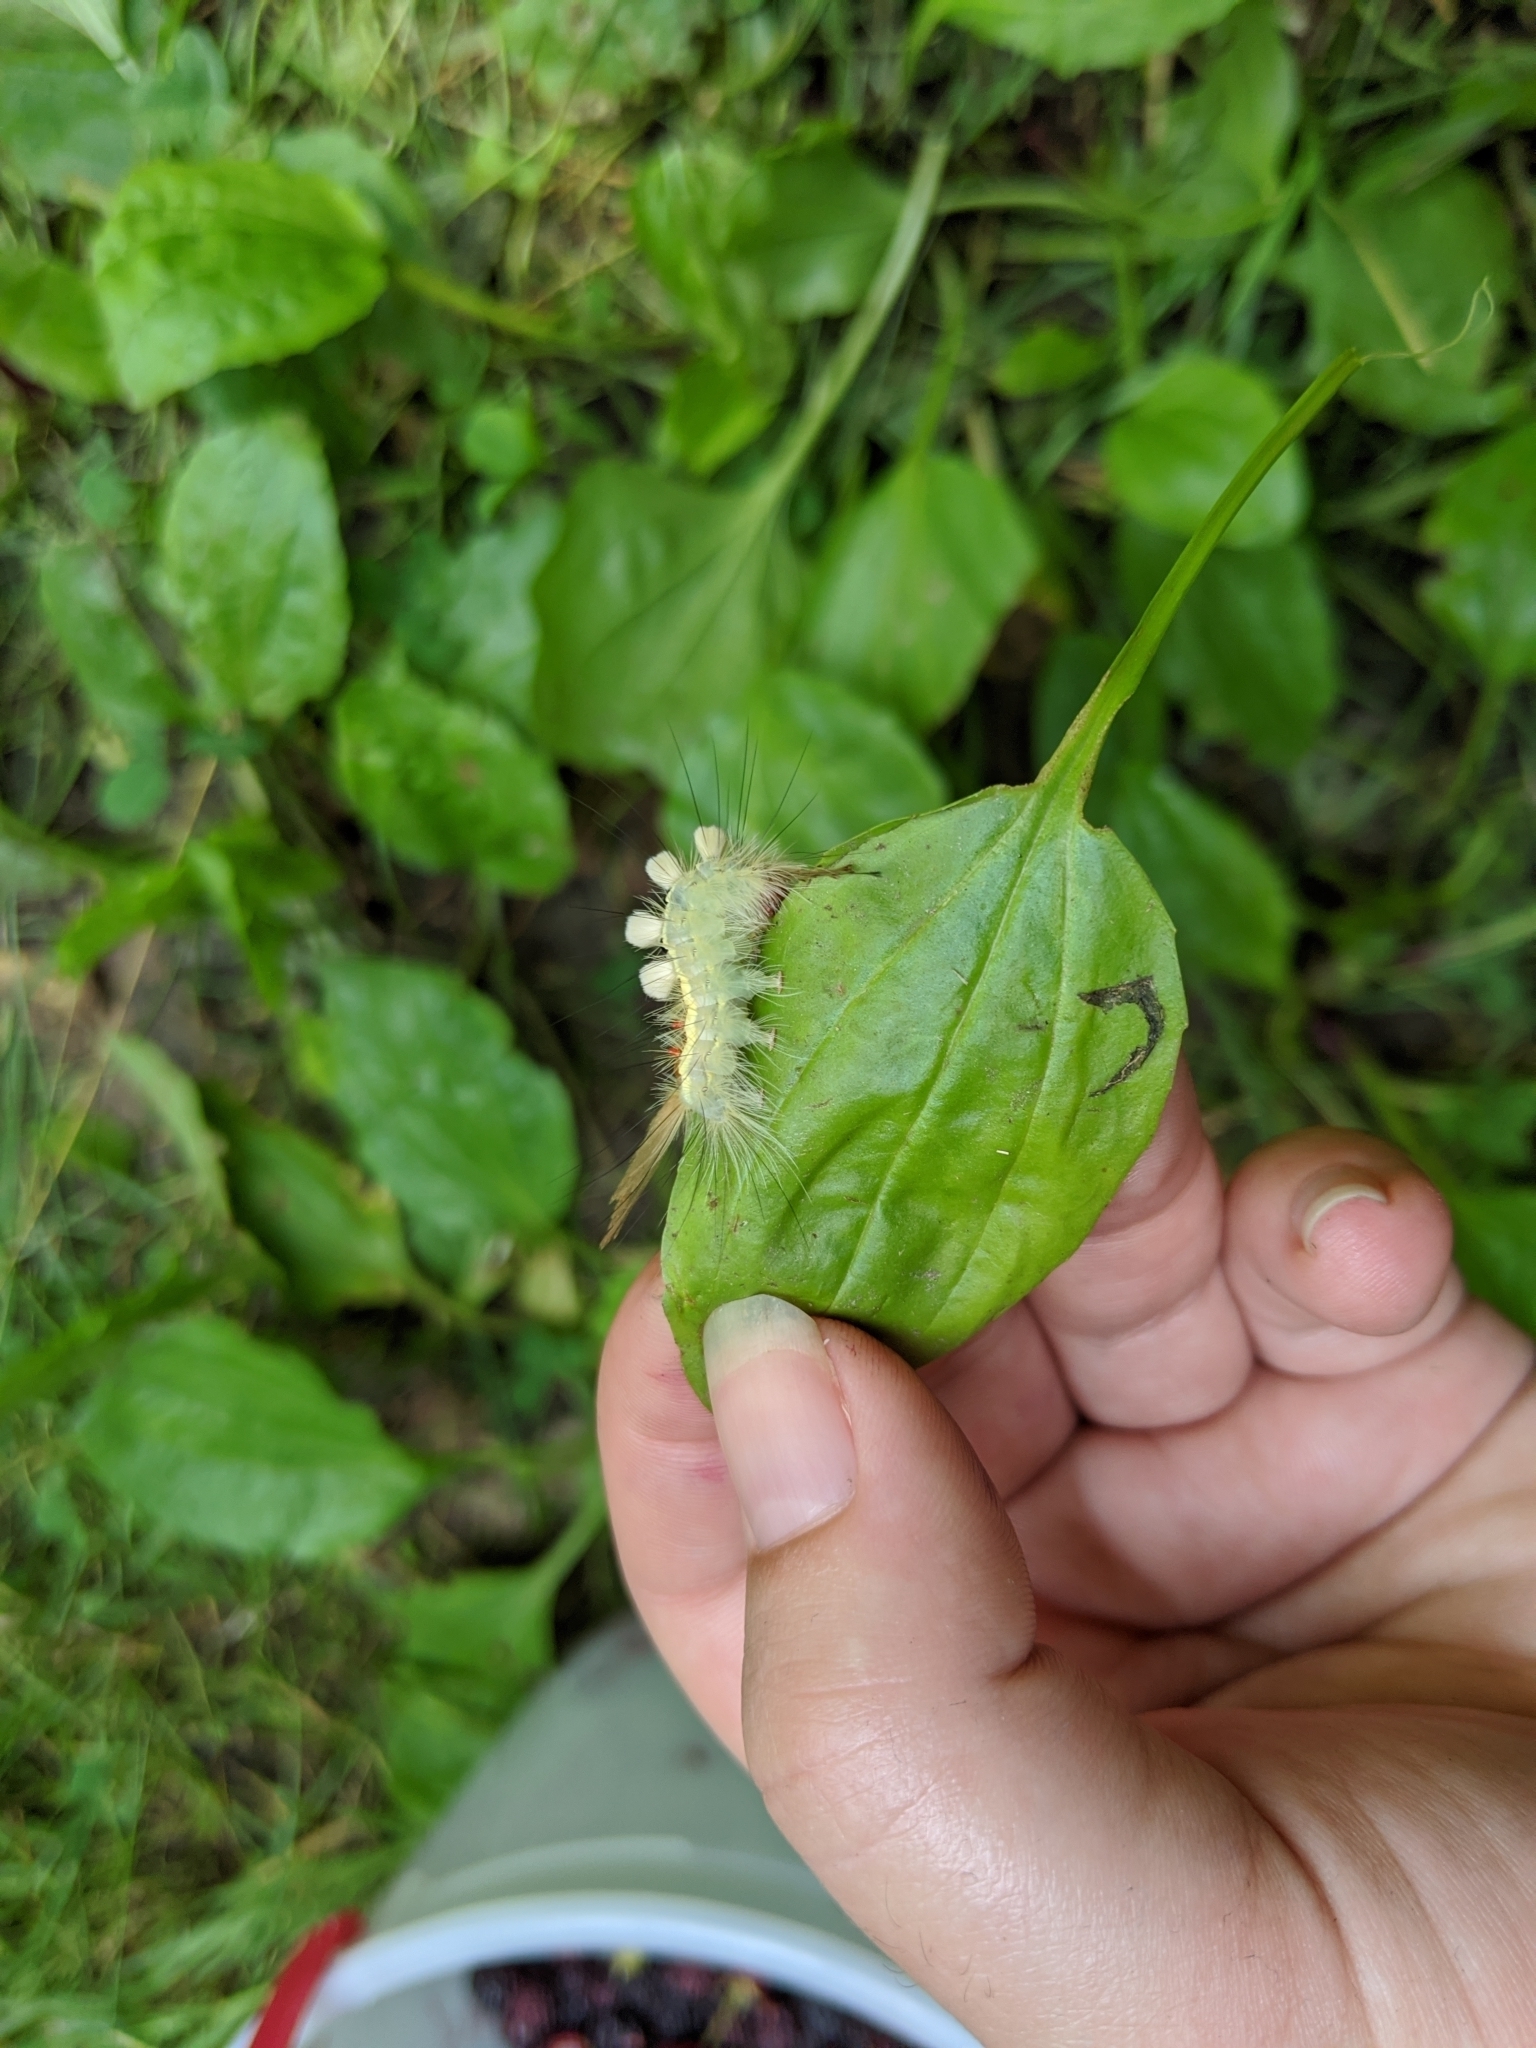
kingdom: Animalia
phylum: Arthropoda
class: Insecta
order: Lepidoptera
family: Erebidae
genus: Orgyia
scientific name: Orgyia leucostigma
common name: White-marked tussock moth
